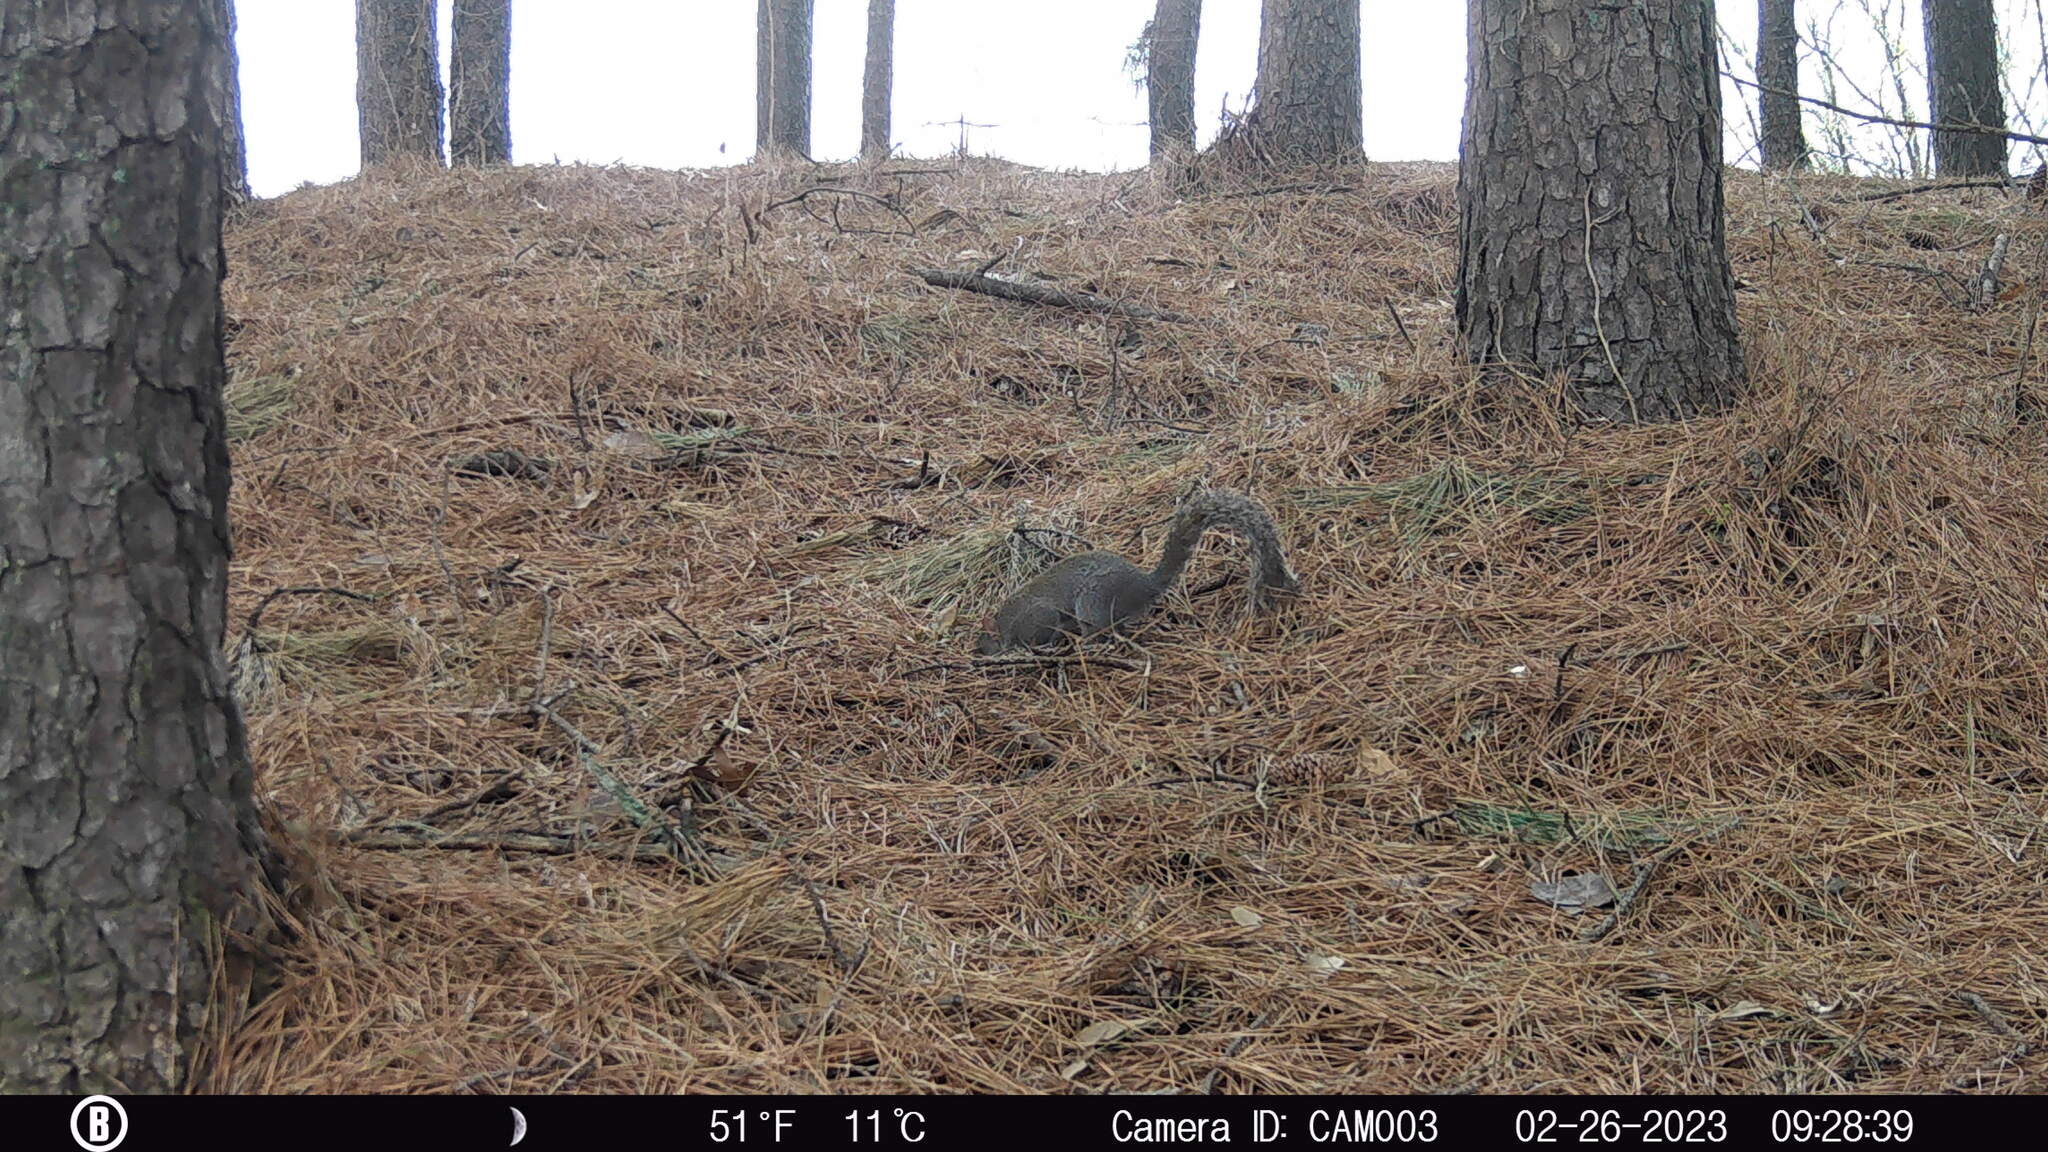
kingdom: Animalia
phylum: Chordata
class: Mammalia
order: Rodentia
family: Sciuridae
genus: Sciurus
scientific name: Sciurus carolinensis
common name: Eastern gray squirrel
